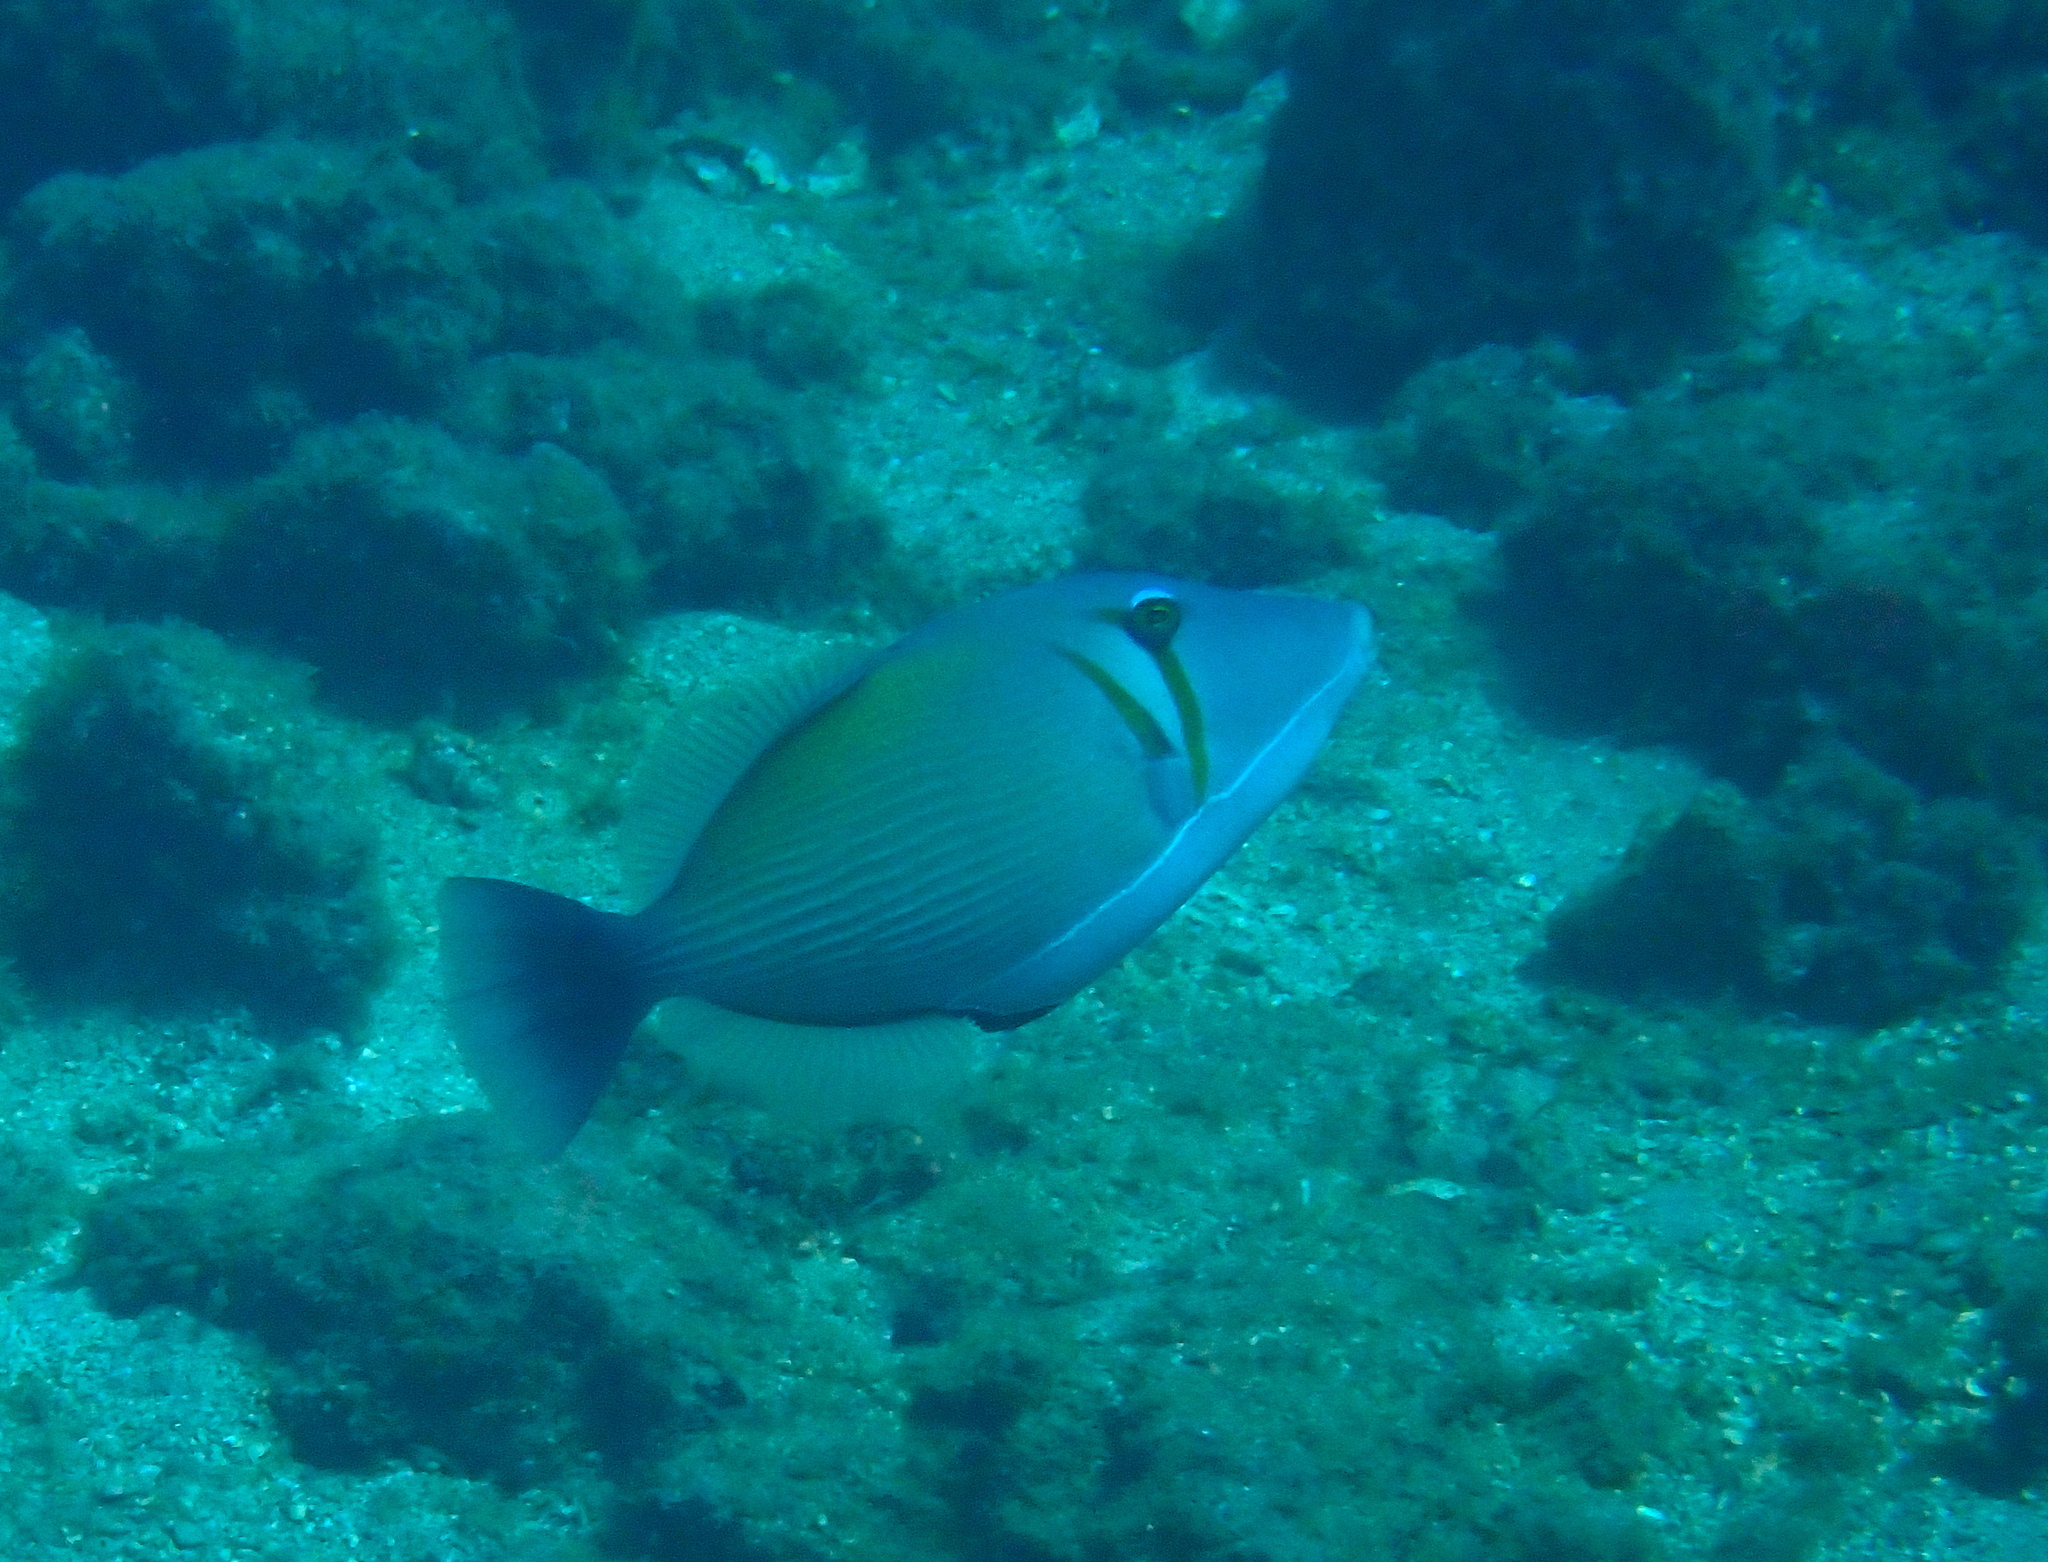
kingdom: Animalia
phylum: Chordata
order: Tetraodontiformes
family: Balistidae
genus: Sufflamen
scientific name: Sufflamen bursa
